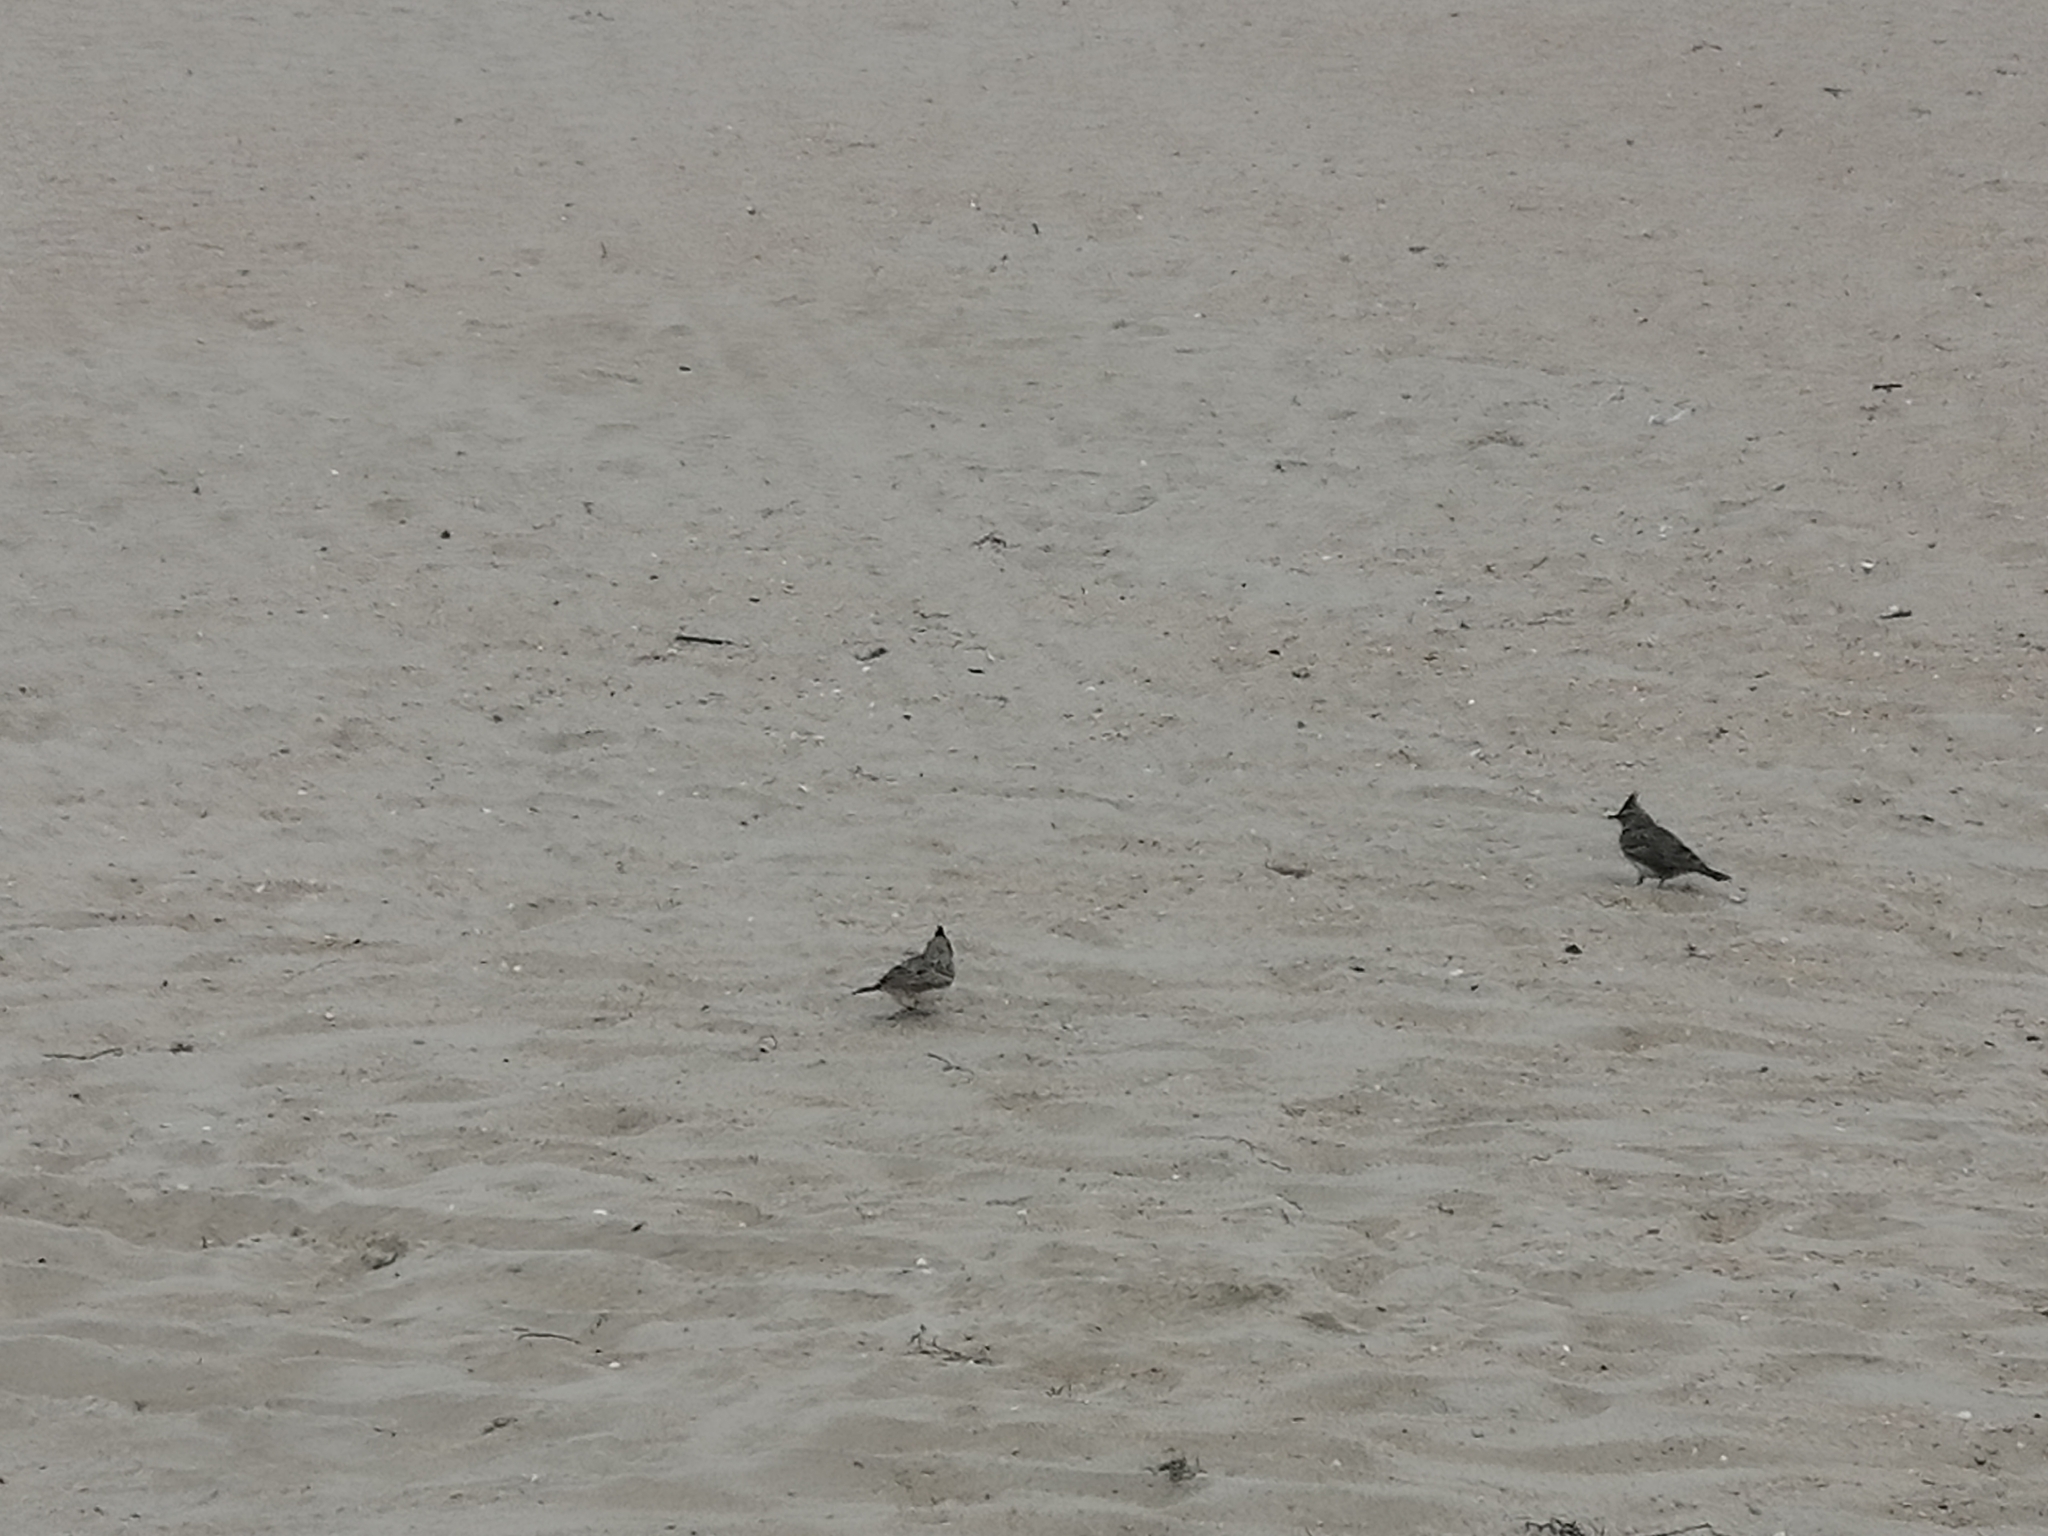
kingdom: Animalia
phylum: Chordata
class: Aves
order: Passeriformes
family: Alaudidae
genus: Galerida
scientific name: Galerida cristata
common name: Crested lark
